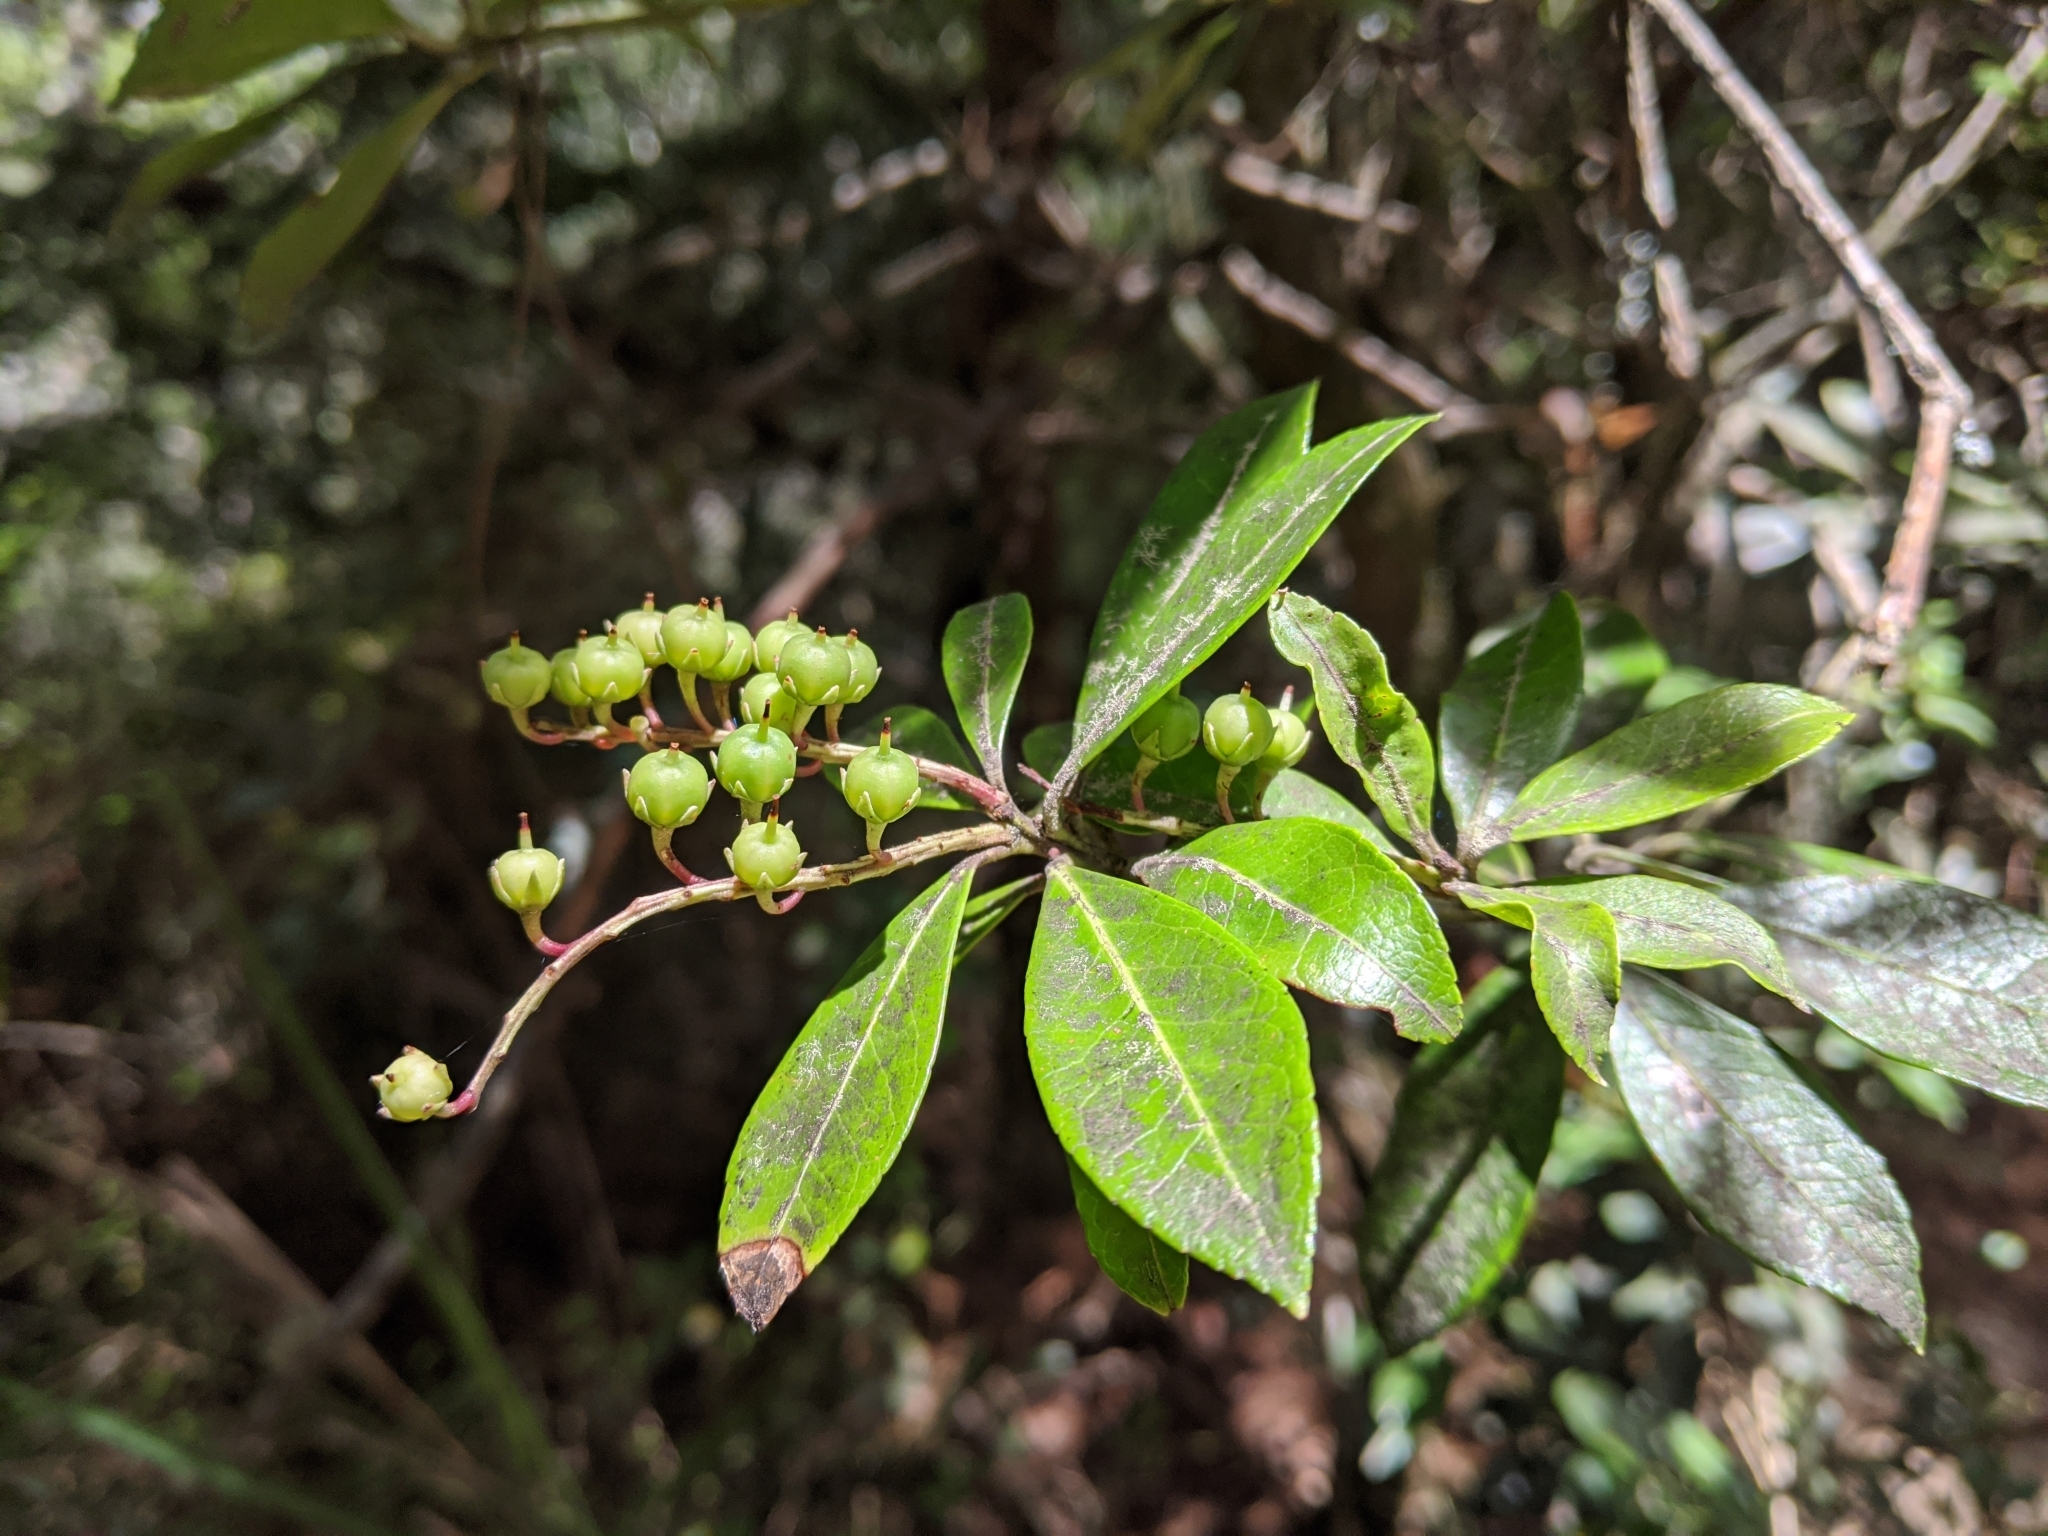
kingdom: Plantae
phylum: Tracheophyta
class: Magnoliopsida
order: Ericales
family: Ericaceae
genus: Pieris
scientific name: Pieris japonica
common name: Japanese pieris
